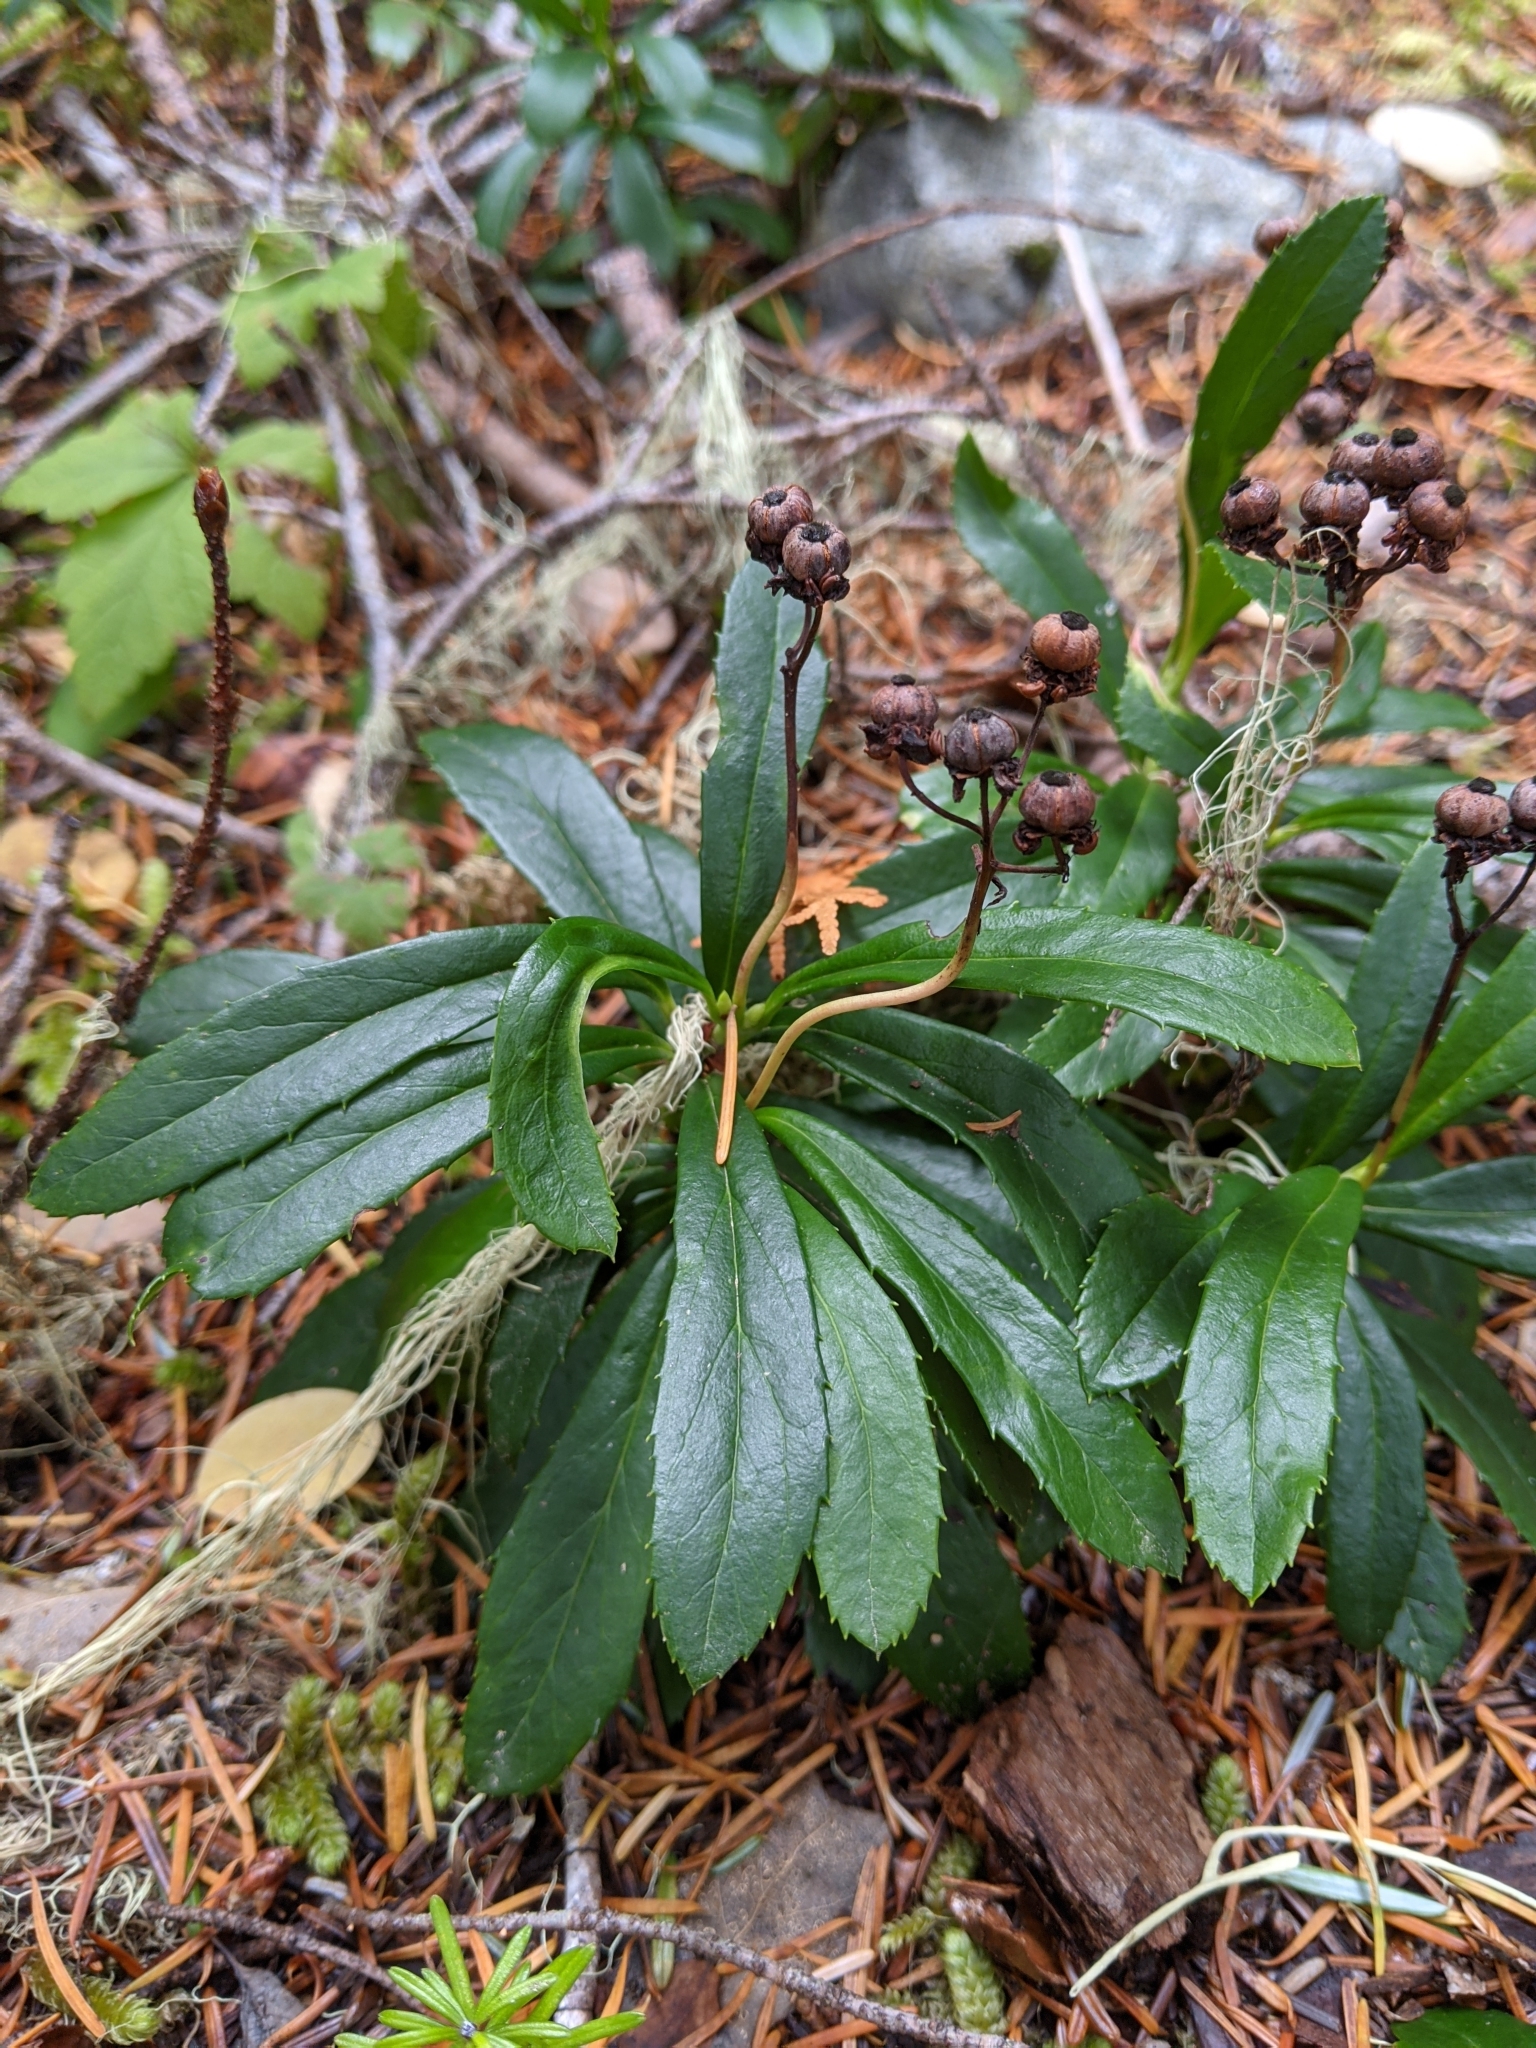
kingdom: Plantae
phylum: Tracheophyta
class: Magnoliopsida
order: Ericales
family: Ericaceae
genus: Chimaphila
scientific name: Chimaphila umbellata
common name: Pipsissewa
